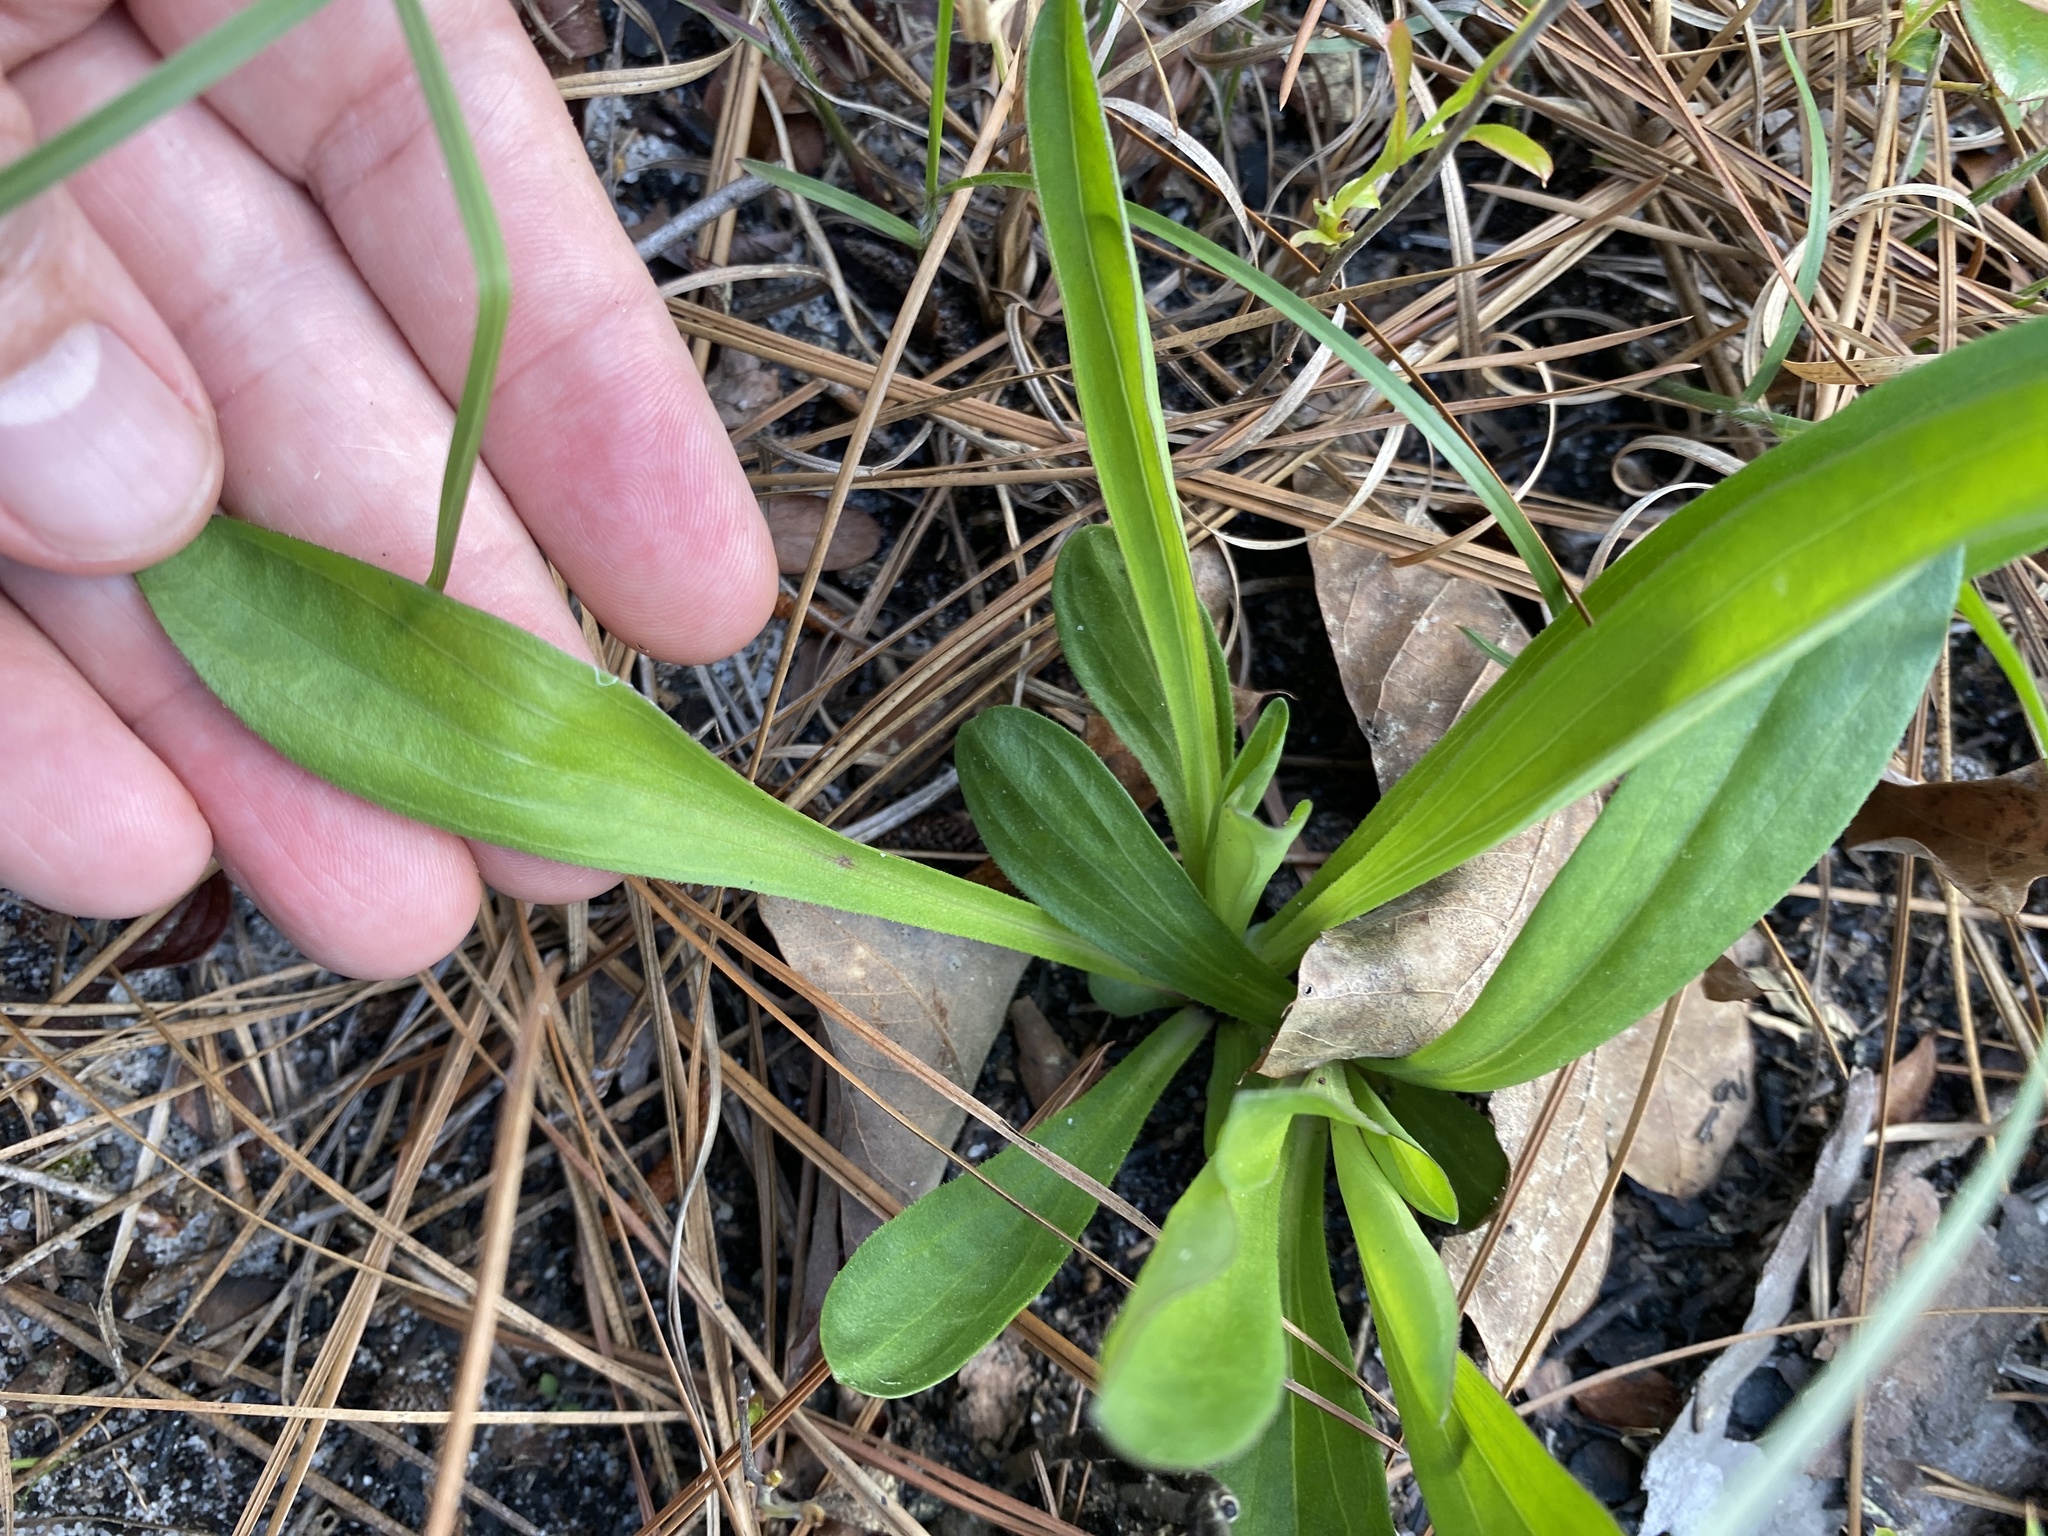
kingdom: Plantae
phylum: Tracheophyta
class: Magnoliopsida
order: Asterales
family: Asteraceae
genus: Carphephorus
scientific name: Carphephorus bellidifolius
